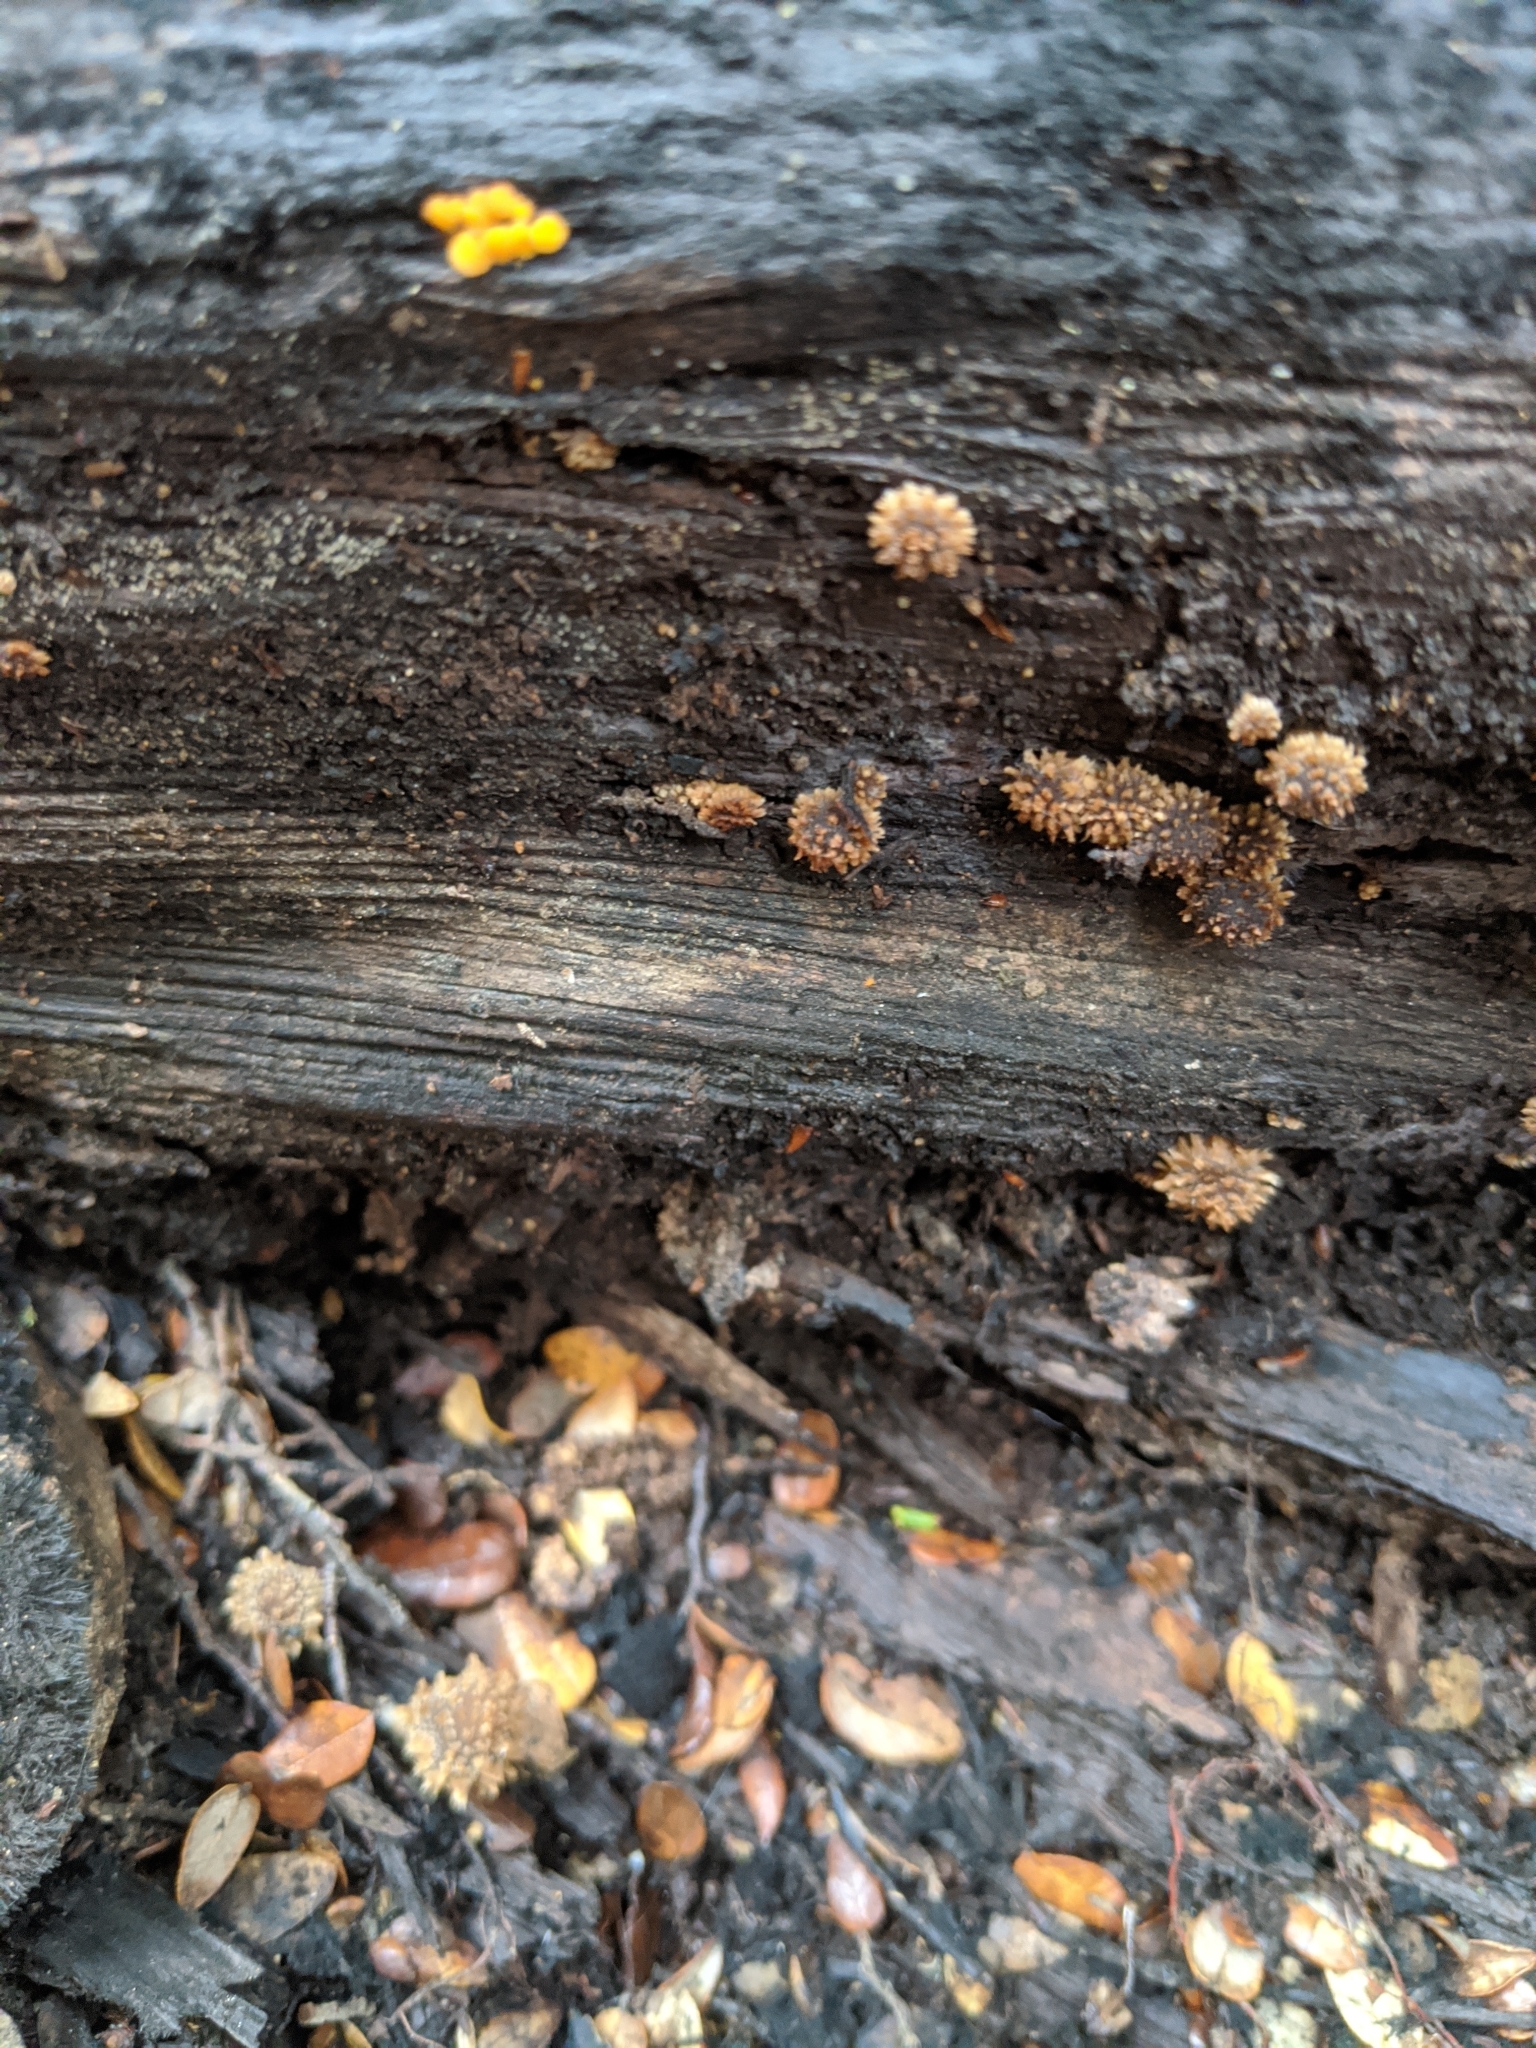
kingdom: Fungi
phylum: Basidiomycota
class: Agaricomycetes
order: Agaricales
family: Psathyrellaceae
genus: Psathyrella
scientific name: Psathyrella echinata
